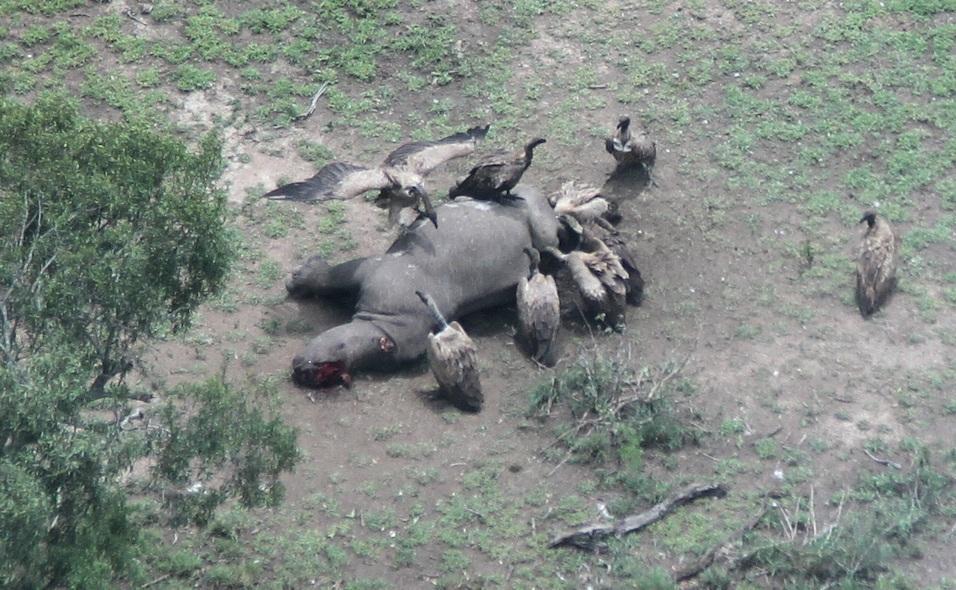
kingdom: Animalia
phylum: Chordata
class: Mammalia
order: Perissodactyla
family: Rhinocerotidae
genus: Ceratotherium
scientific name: Ceratotherium simum
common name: White rhinoceros
